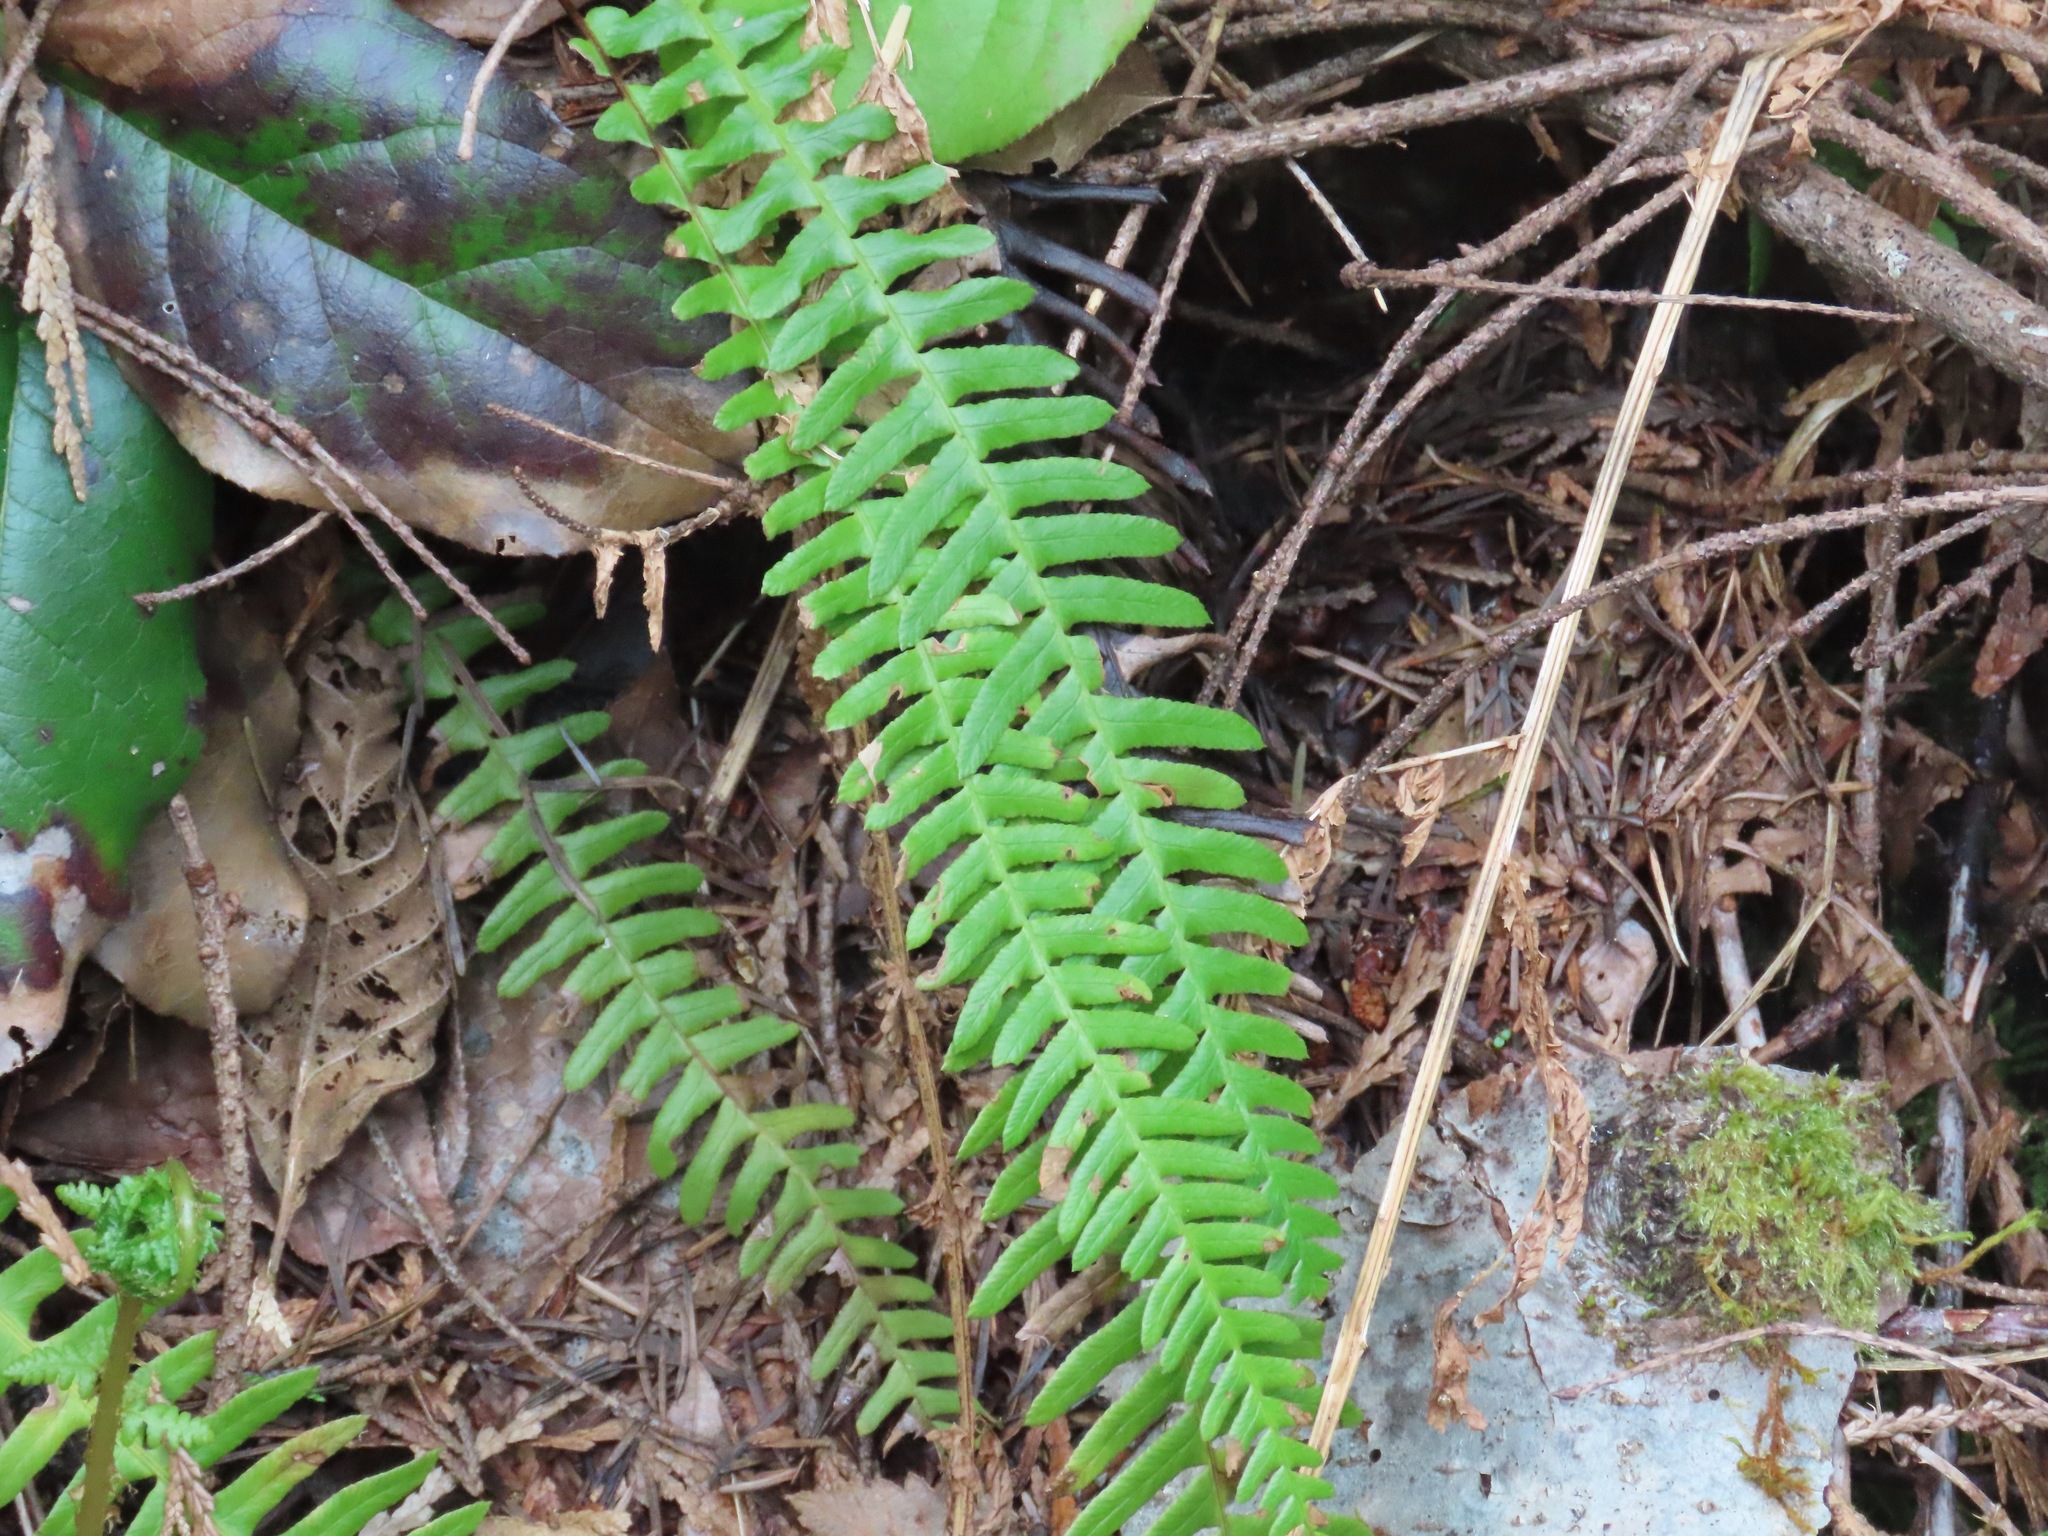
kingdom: Plantae
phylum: Tracheophyta
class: Polypodiopsida
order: Polypodiales
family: Blechnaceae
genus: Struthiopteris
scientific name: Struthiopteris spicant
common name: Deer fern
